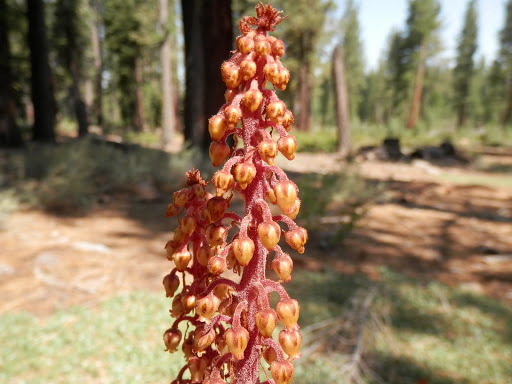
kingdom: Plantae
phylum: Tracheophyta
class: Magnoliopsida
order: Ericales
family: Ericaceae
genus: Pterospora
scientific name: Pterospora andromedea
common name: Giant bird's-nest
